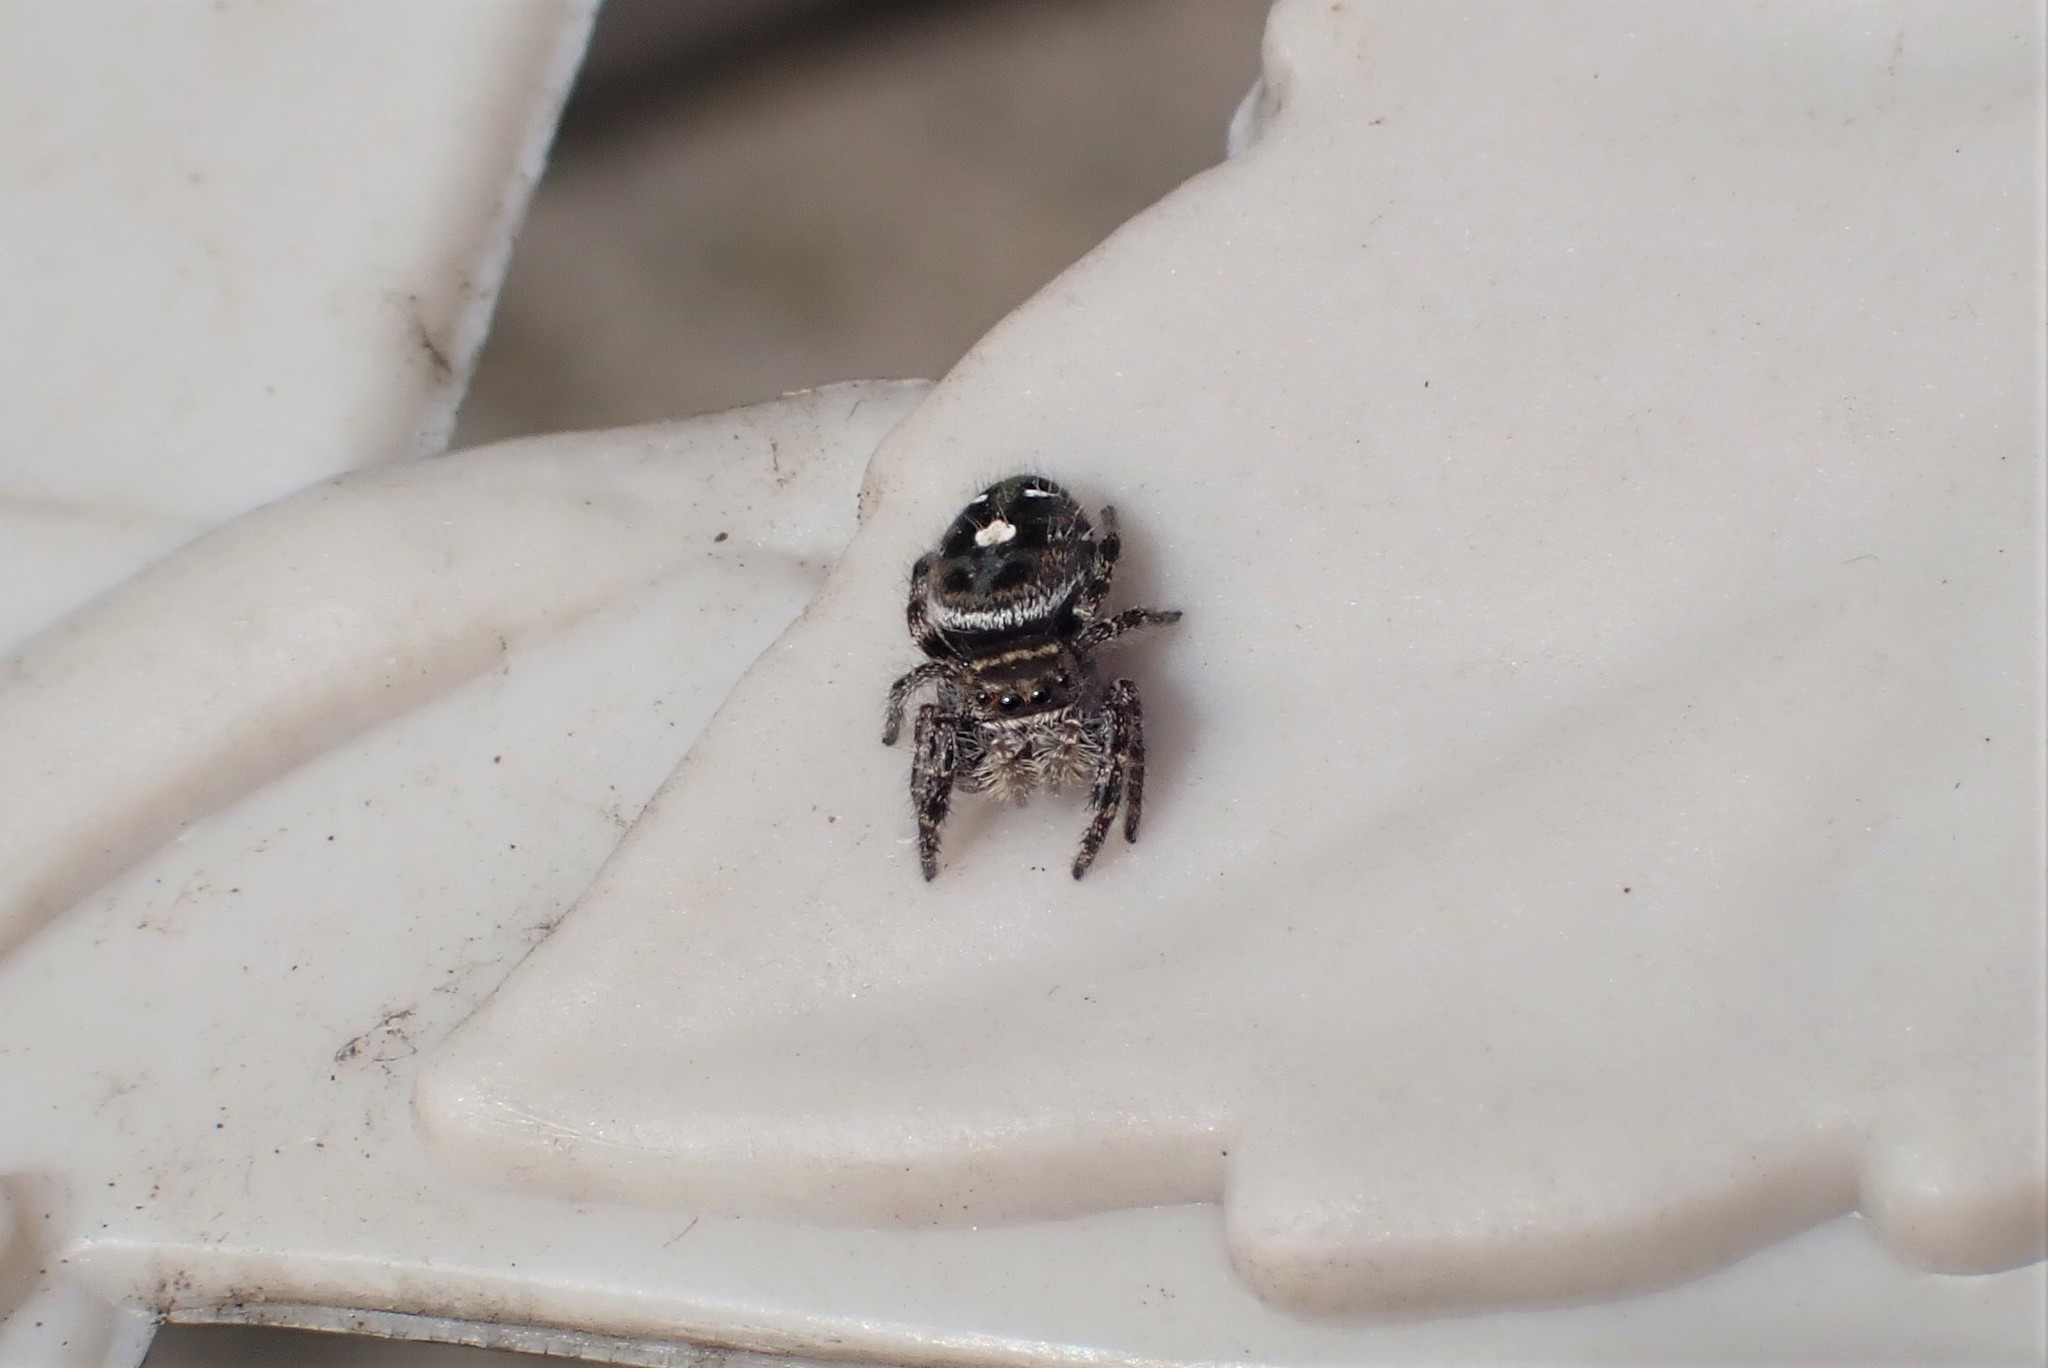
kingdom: Animalia
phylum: Arthropoda
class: Arachnida
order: Araneae
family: Salticidae
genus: Phidippus
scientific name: Phidippus audax
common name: Bold jumper
